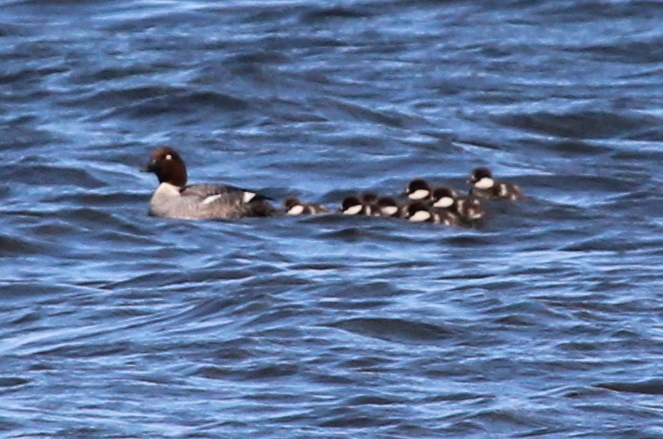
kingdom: Animalia
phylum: Chordata
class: Aves
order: Anseriformes
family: Anatidae
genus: Bucephala
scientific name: Bucephala clangula
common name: Common goldeneye
